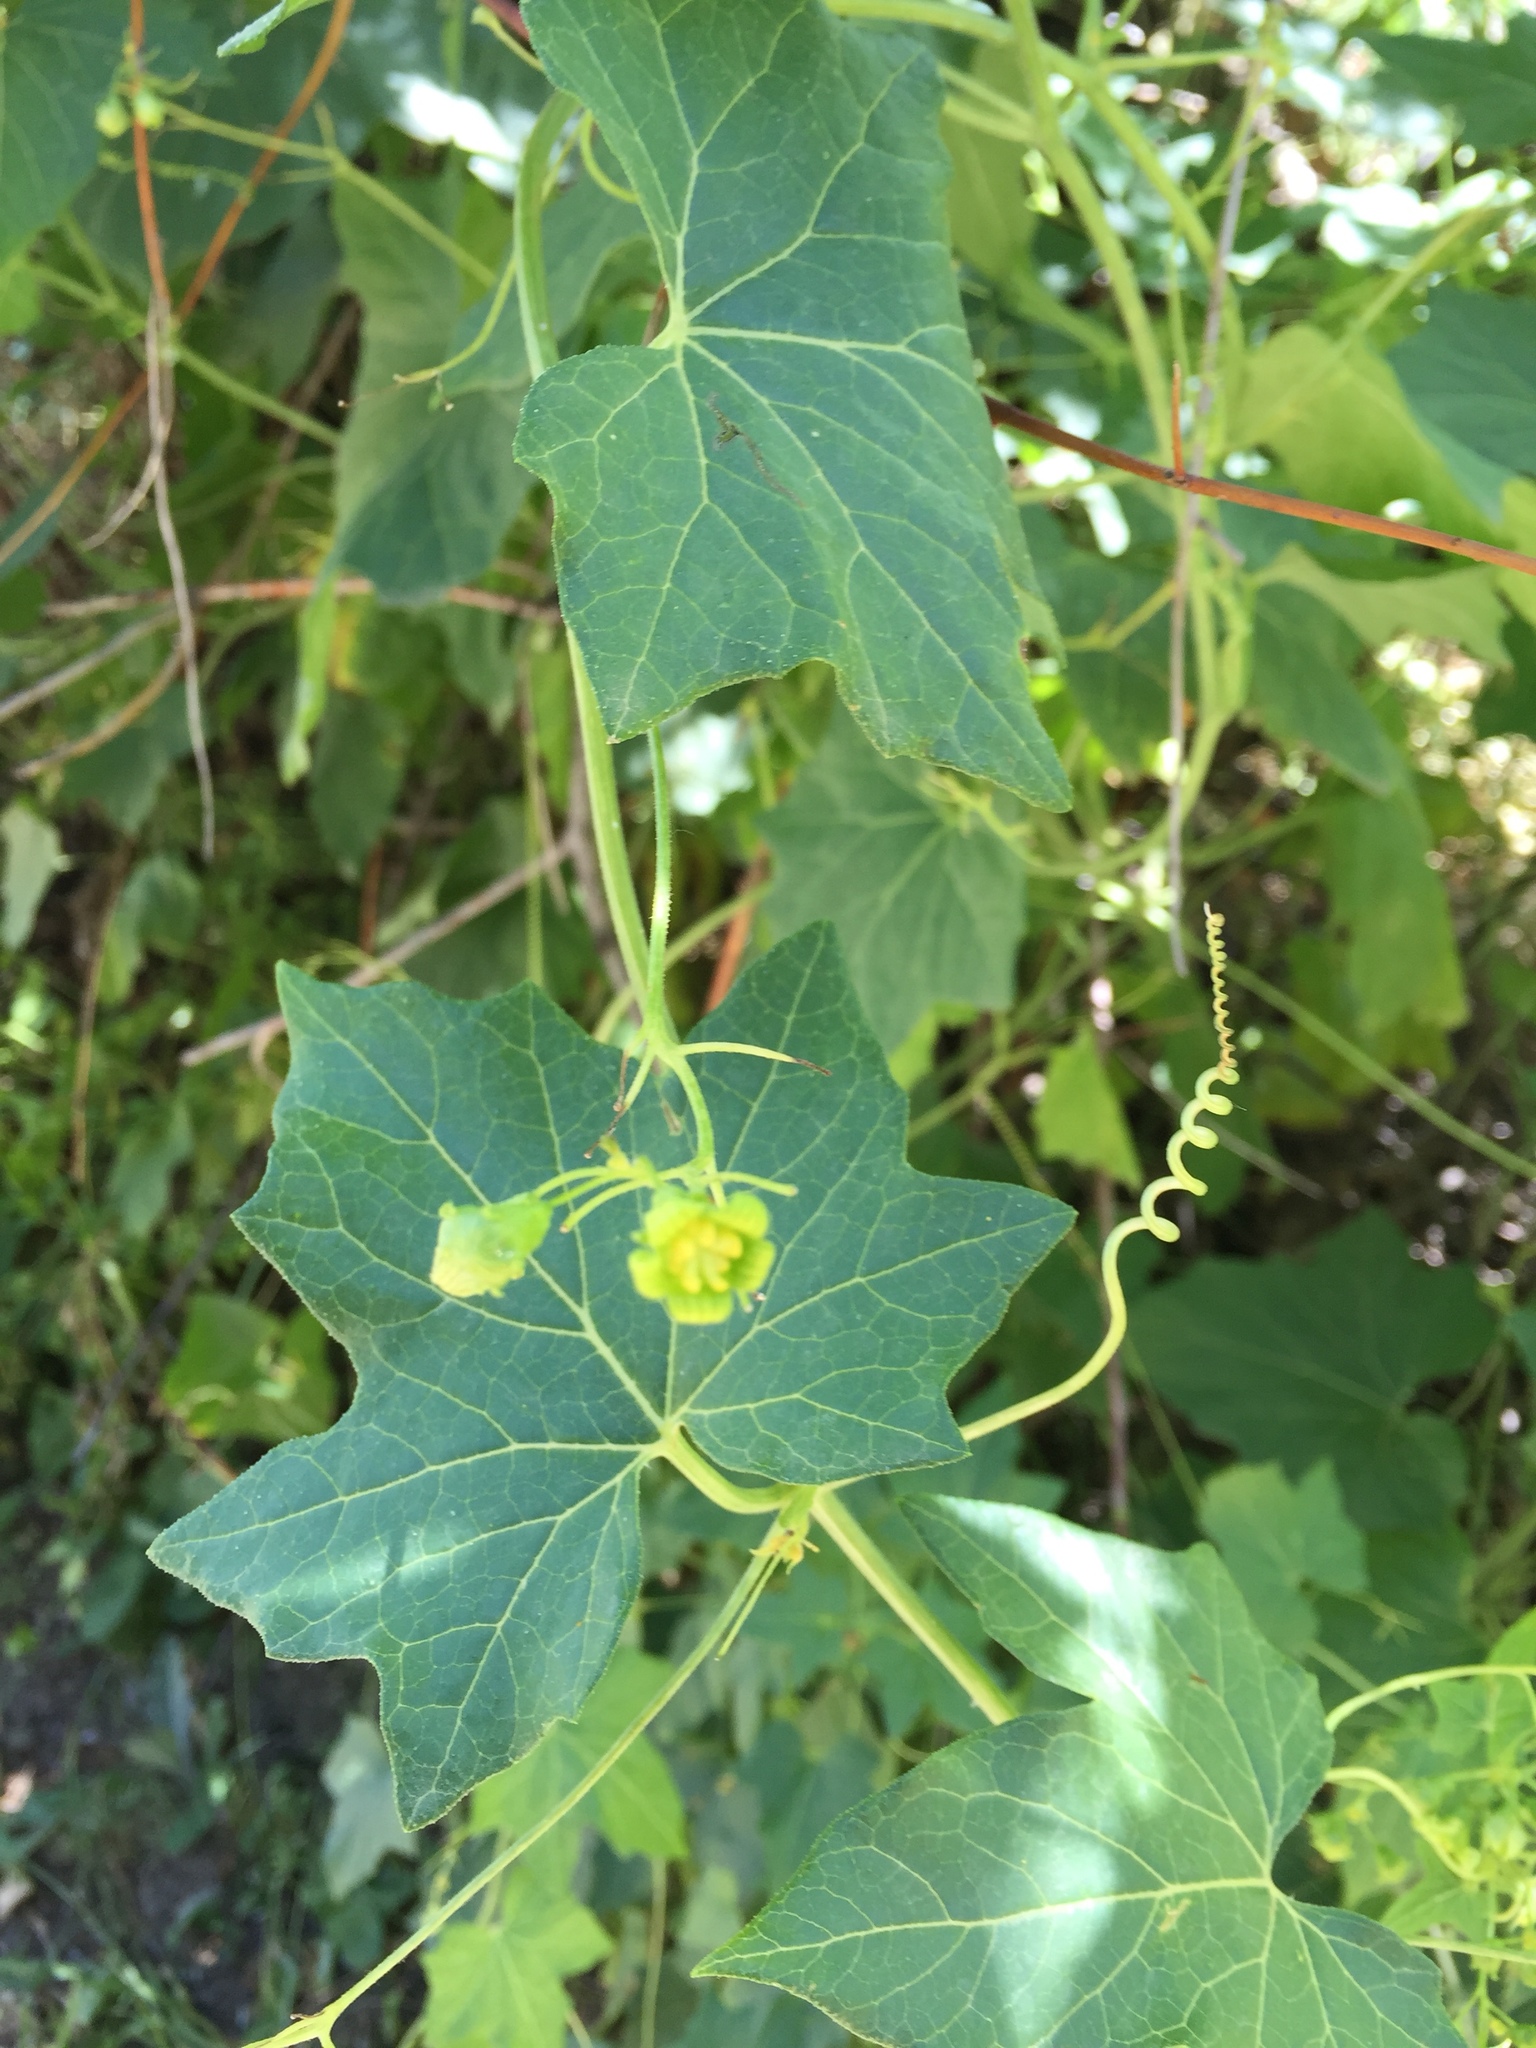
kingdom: Plantae
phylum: Tracheophyta
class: Magnoliopsida
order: Cucurbitales
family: Cucurbitaceae
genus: Bryonia
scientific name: Bryonia alba
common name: White bryony
